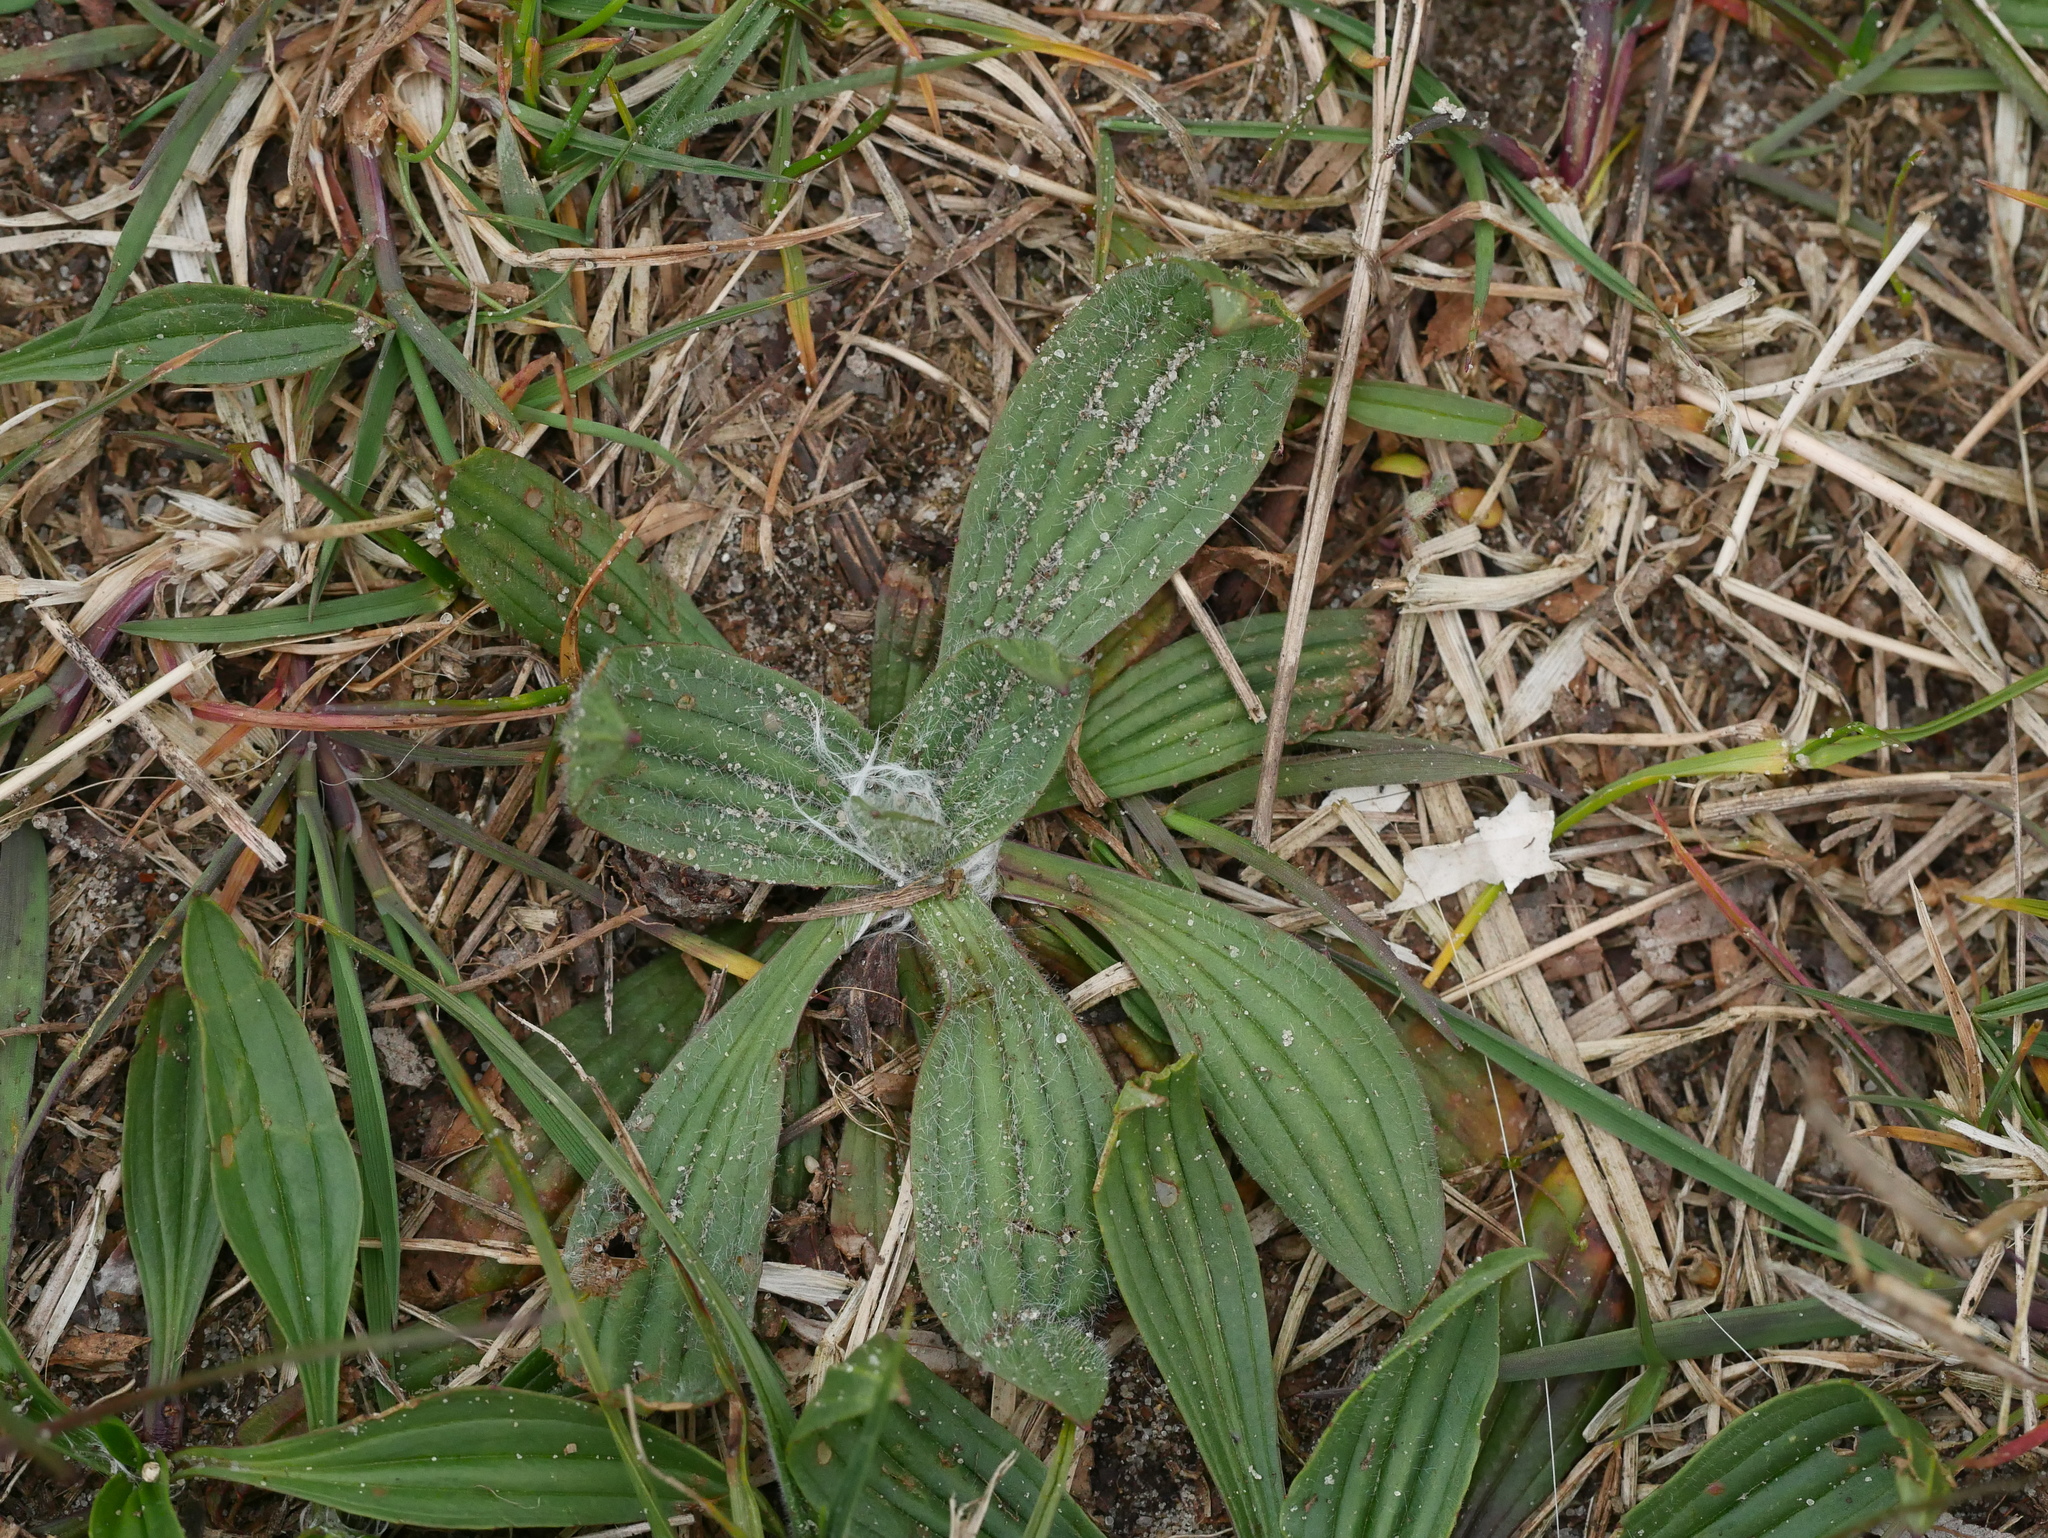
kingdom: Plantae
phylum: Tracheophyta
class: Magnoliopsida
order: Lamiales
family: Plantaginaceae
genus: Plantago
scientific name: Plantago lanceolata
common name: Ribwort plantain
